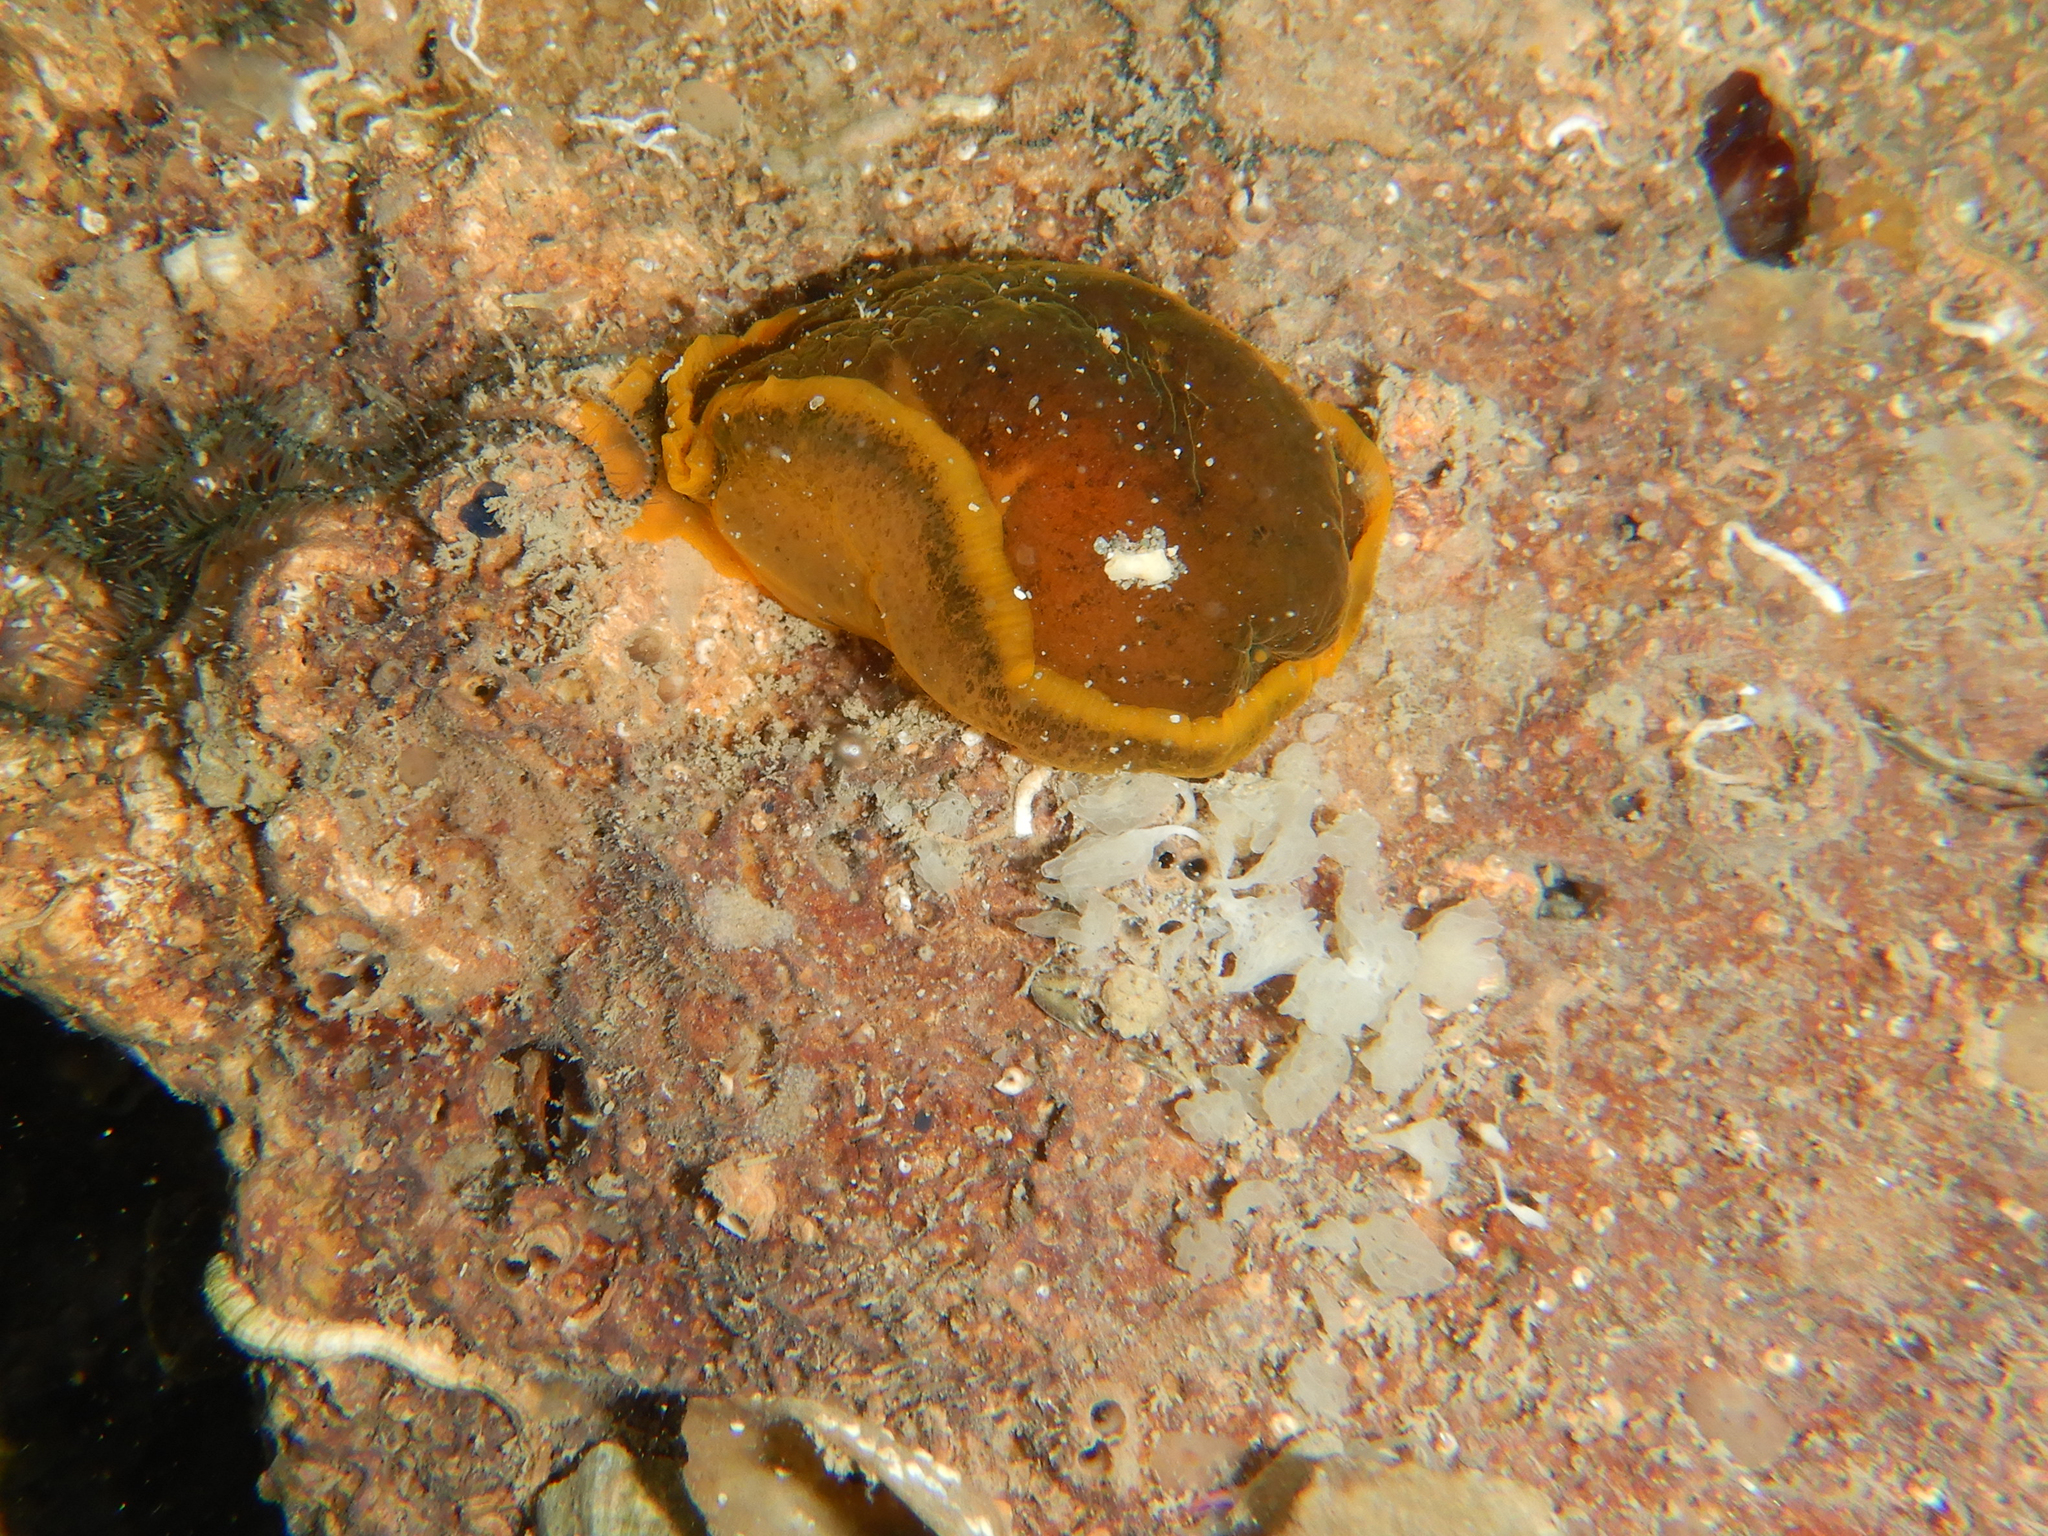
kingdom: Animalia
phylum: Mollusca
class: Gastropoda
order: Nudibranchia
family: Dendrodorididae
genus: Dendrodoris
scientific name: Dendrodoris limbata
